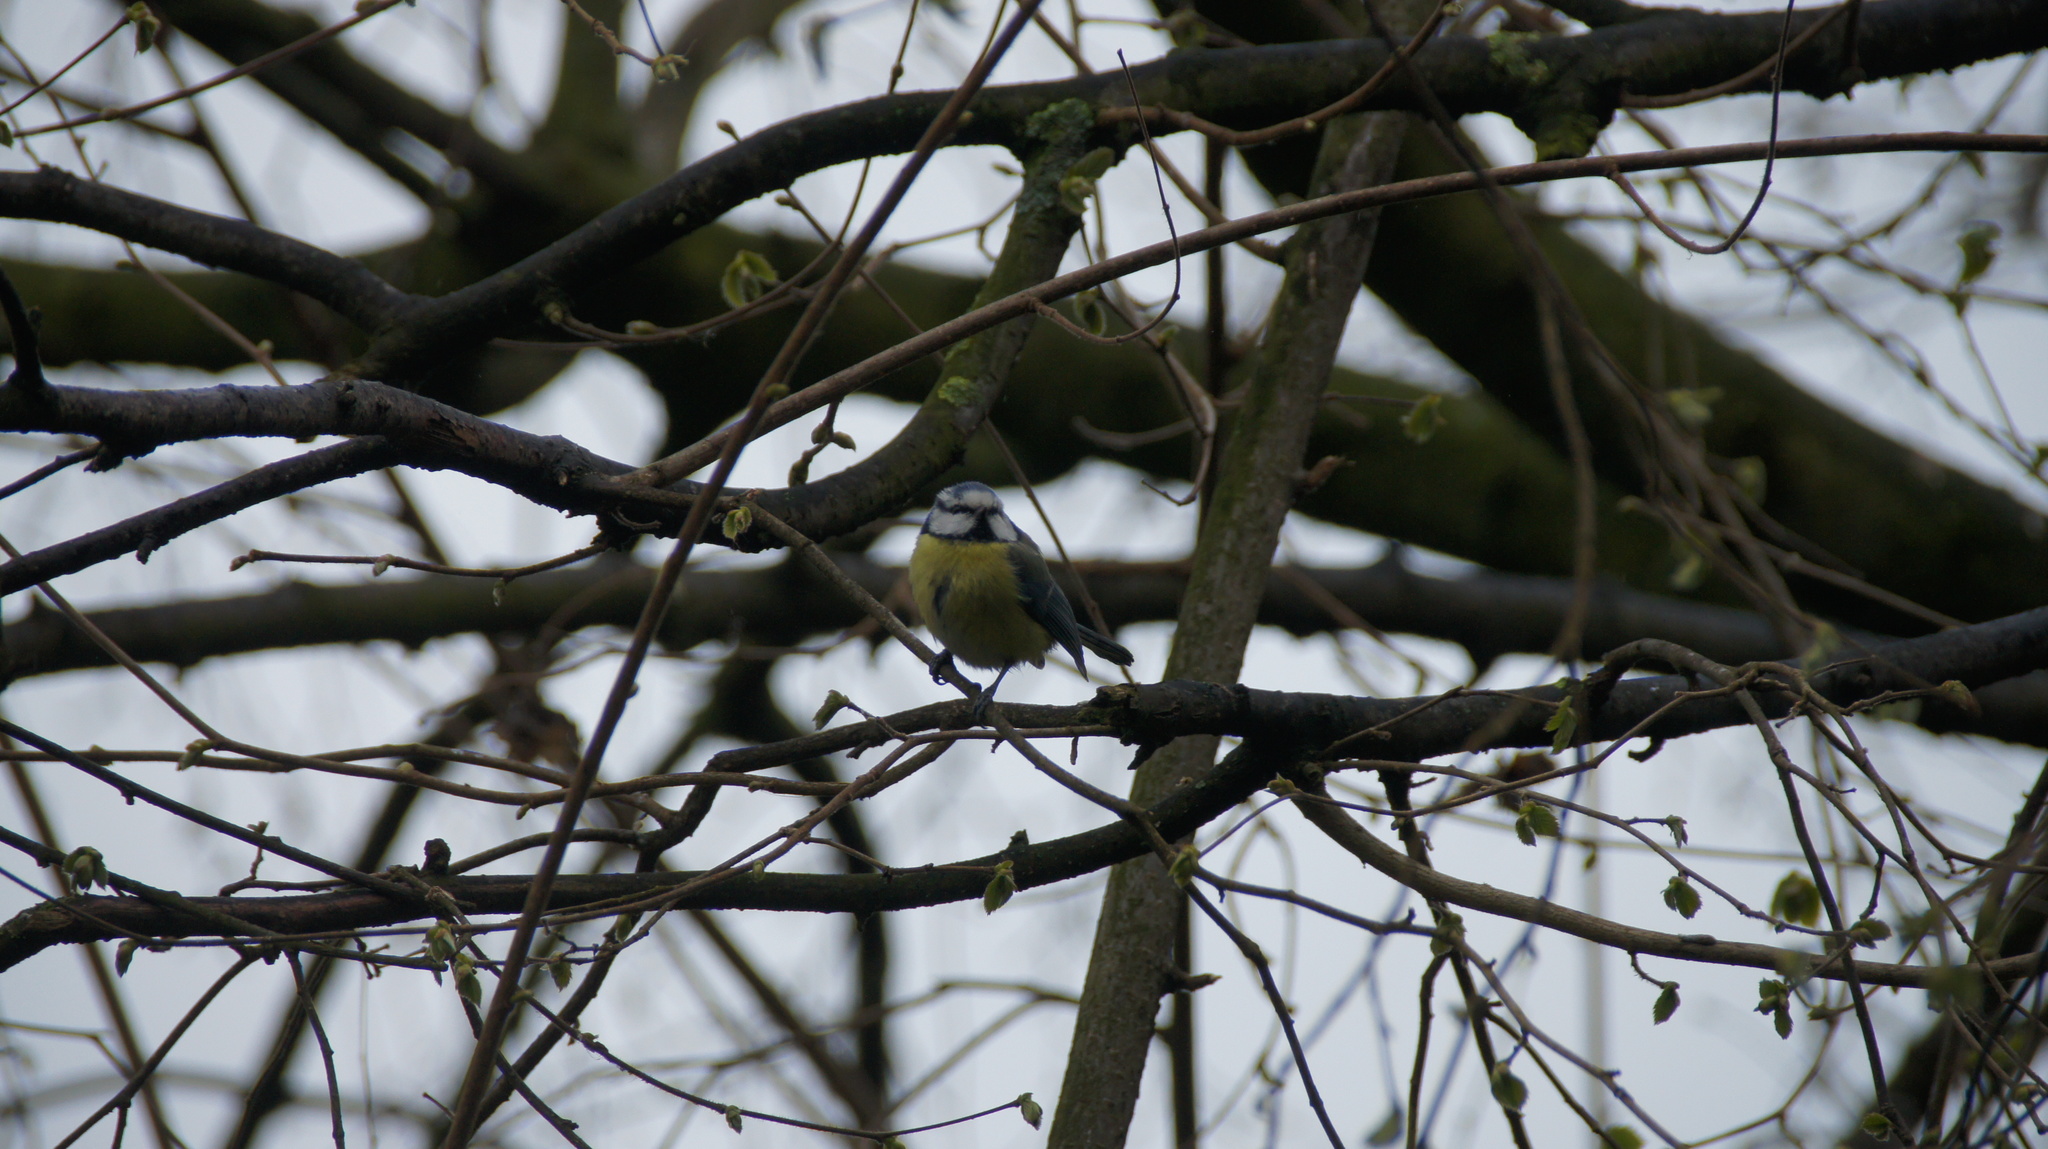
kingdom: Animalia
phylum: Chordata
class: Aves
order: Passeriformes
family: Paridae
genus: Cyanistes
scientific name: Cyanistes caeruleus
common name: Eurasian blue tit
